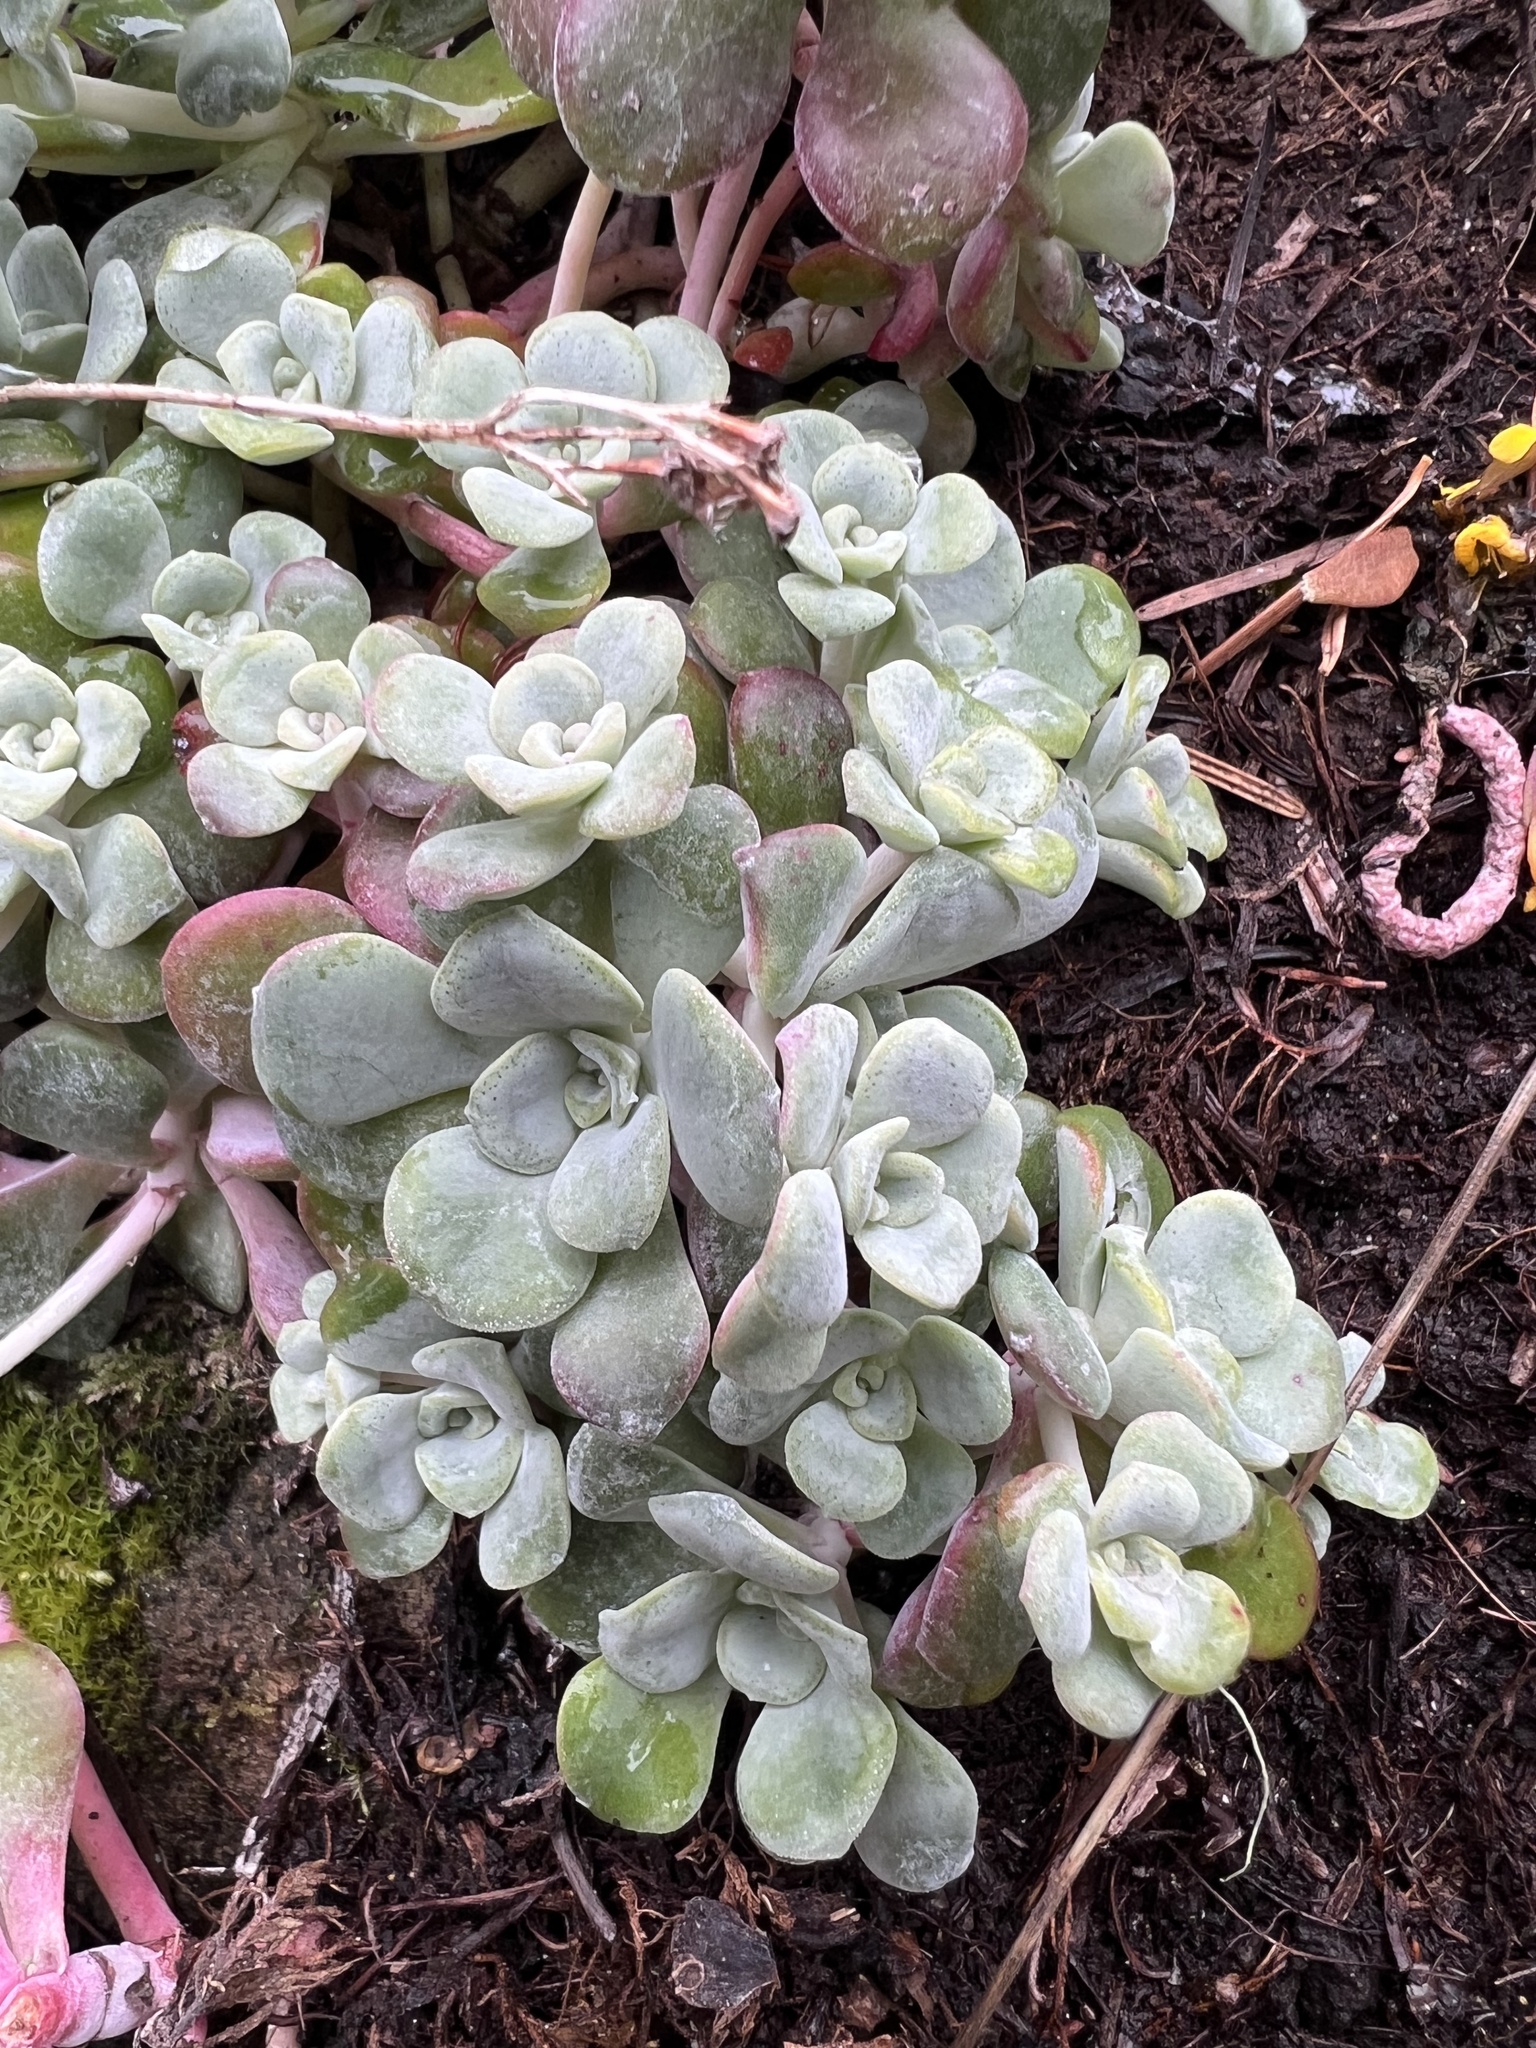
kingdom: Plantae
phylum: Tracheophyta
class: Magnoliopsida
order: Saxifragales
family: Crassulaceae
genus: Sedum
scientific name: Sedum spathulifolium
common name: Colorado stonecrop
